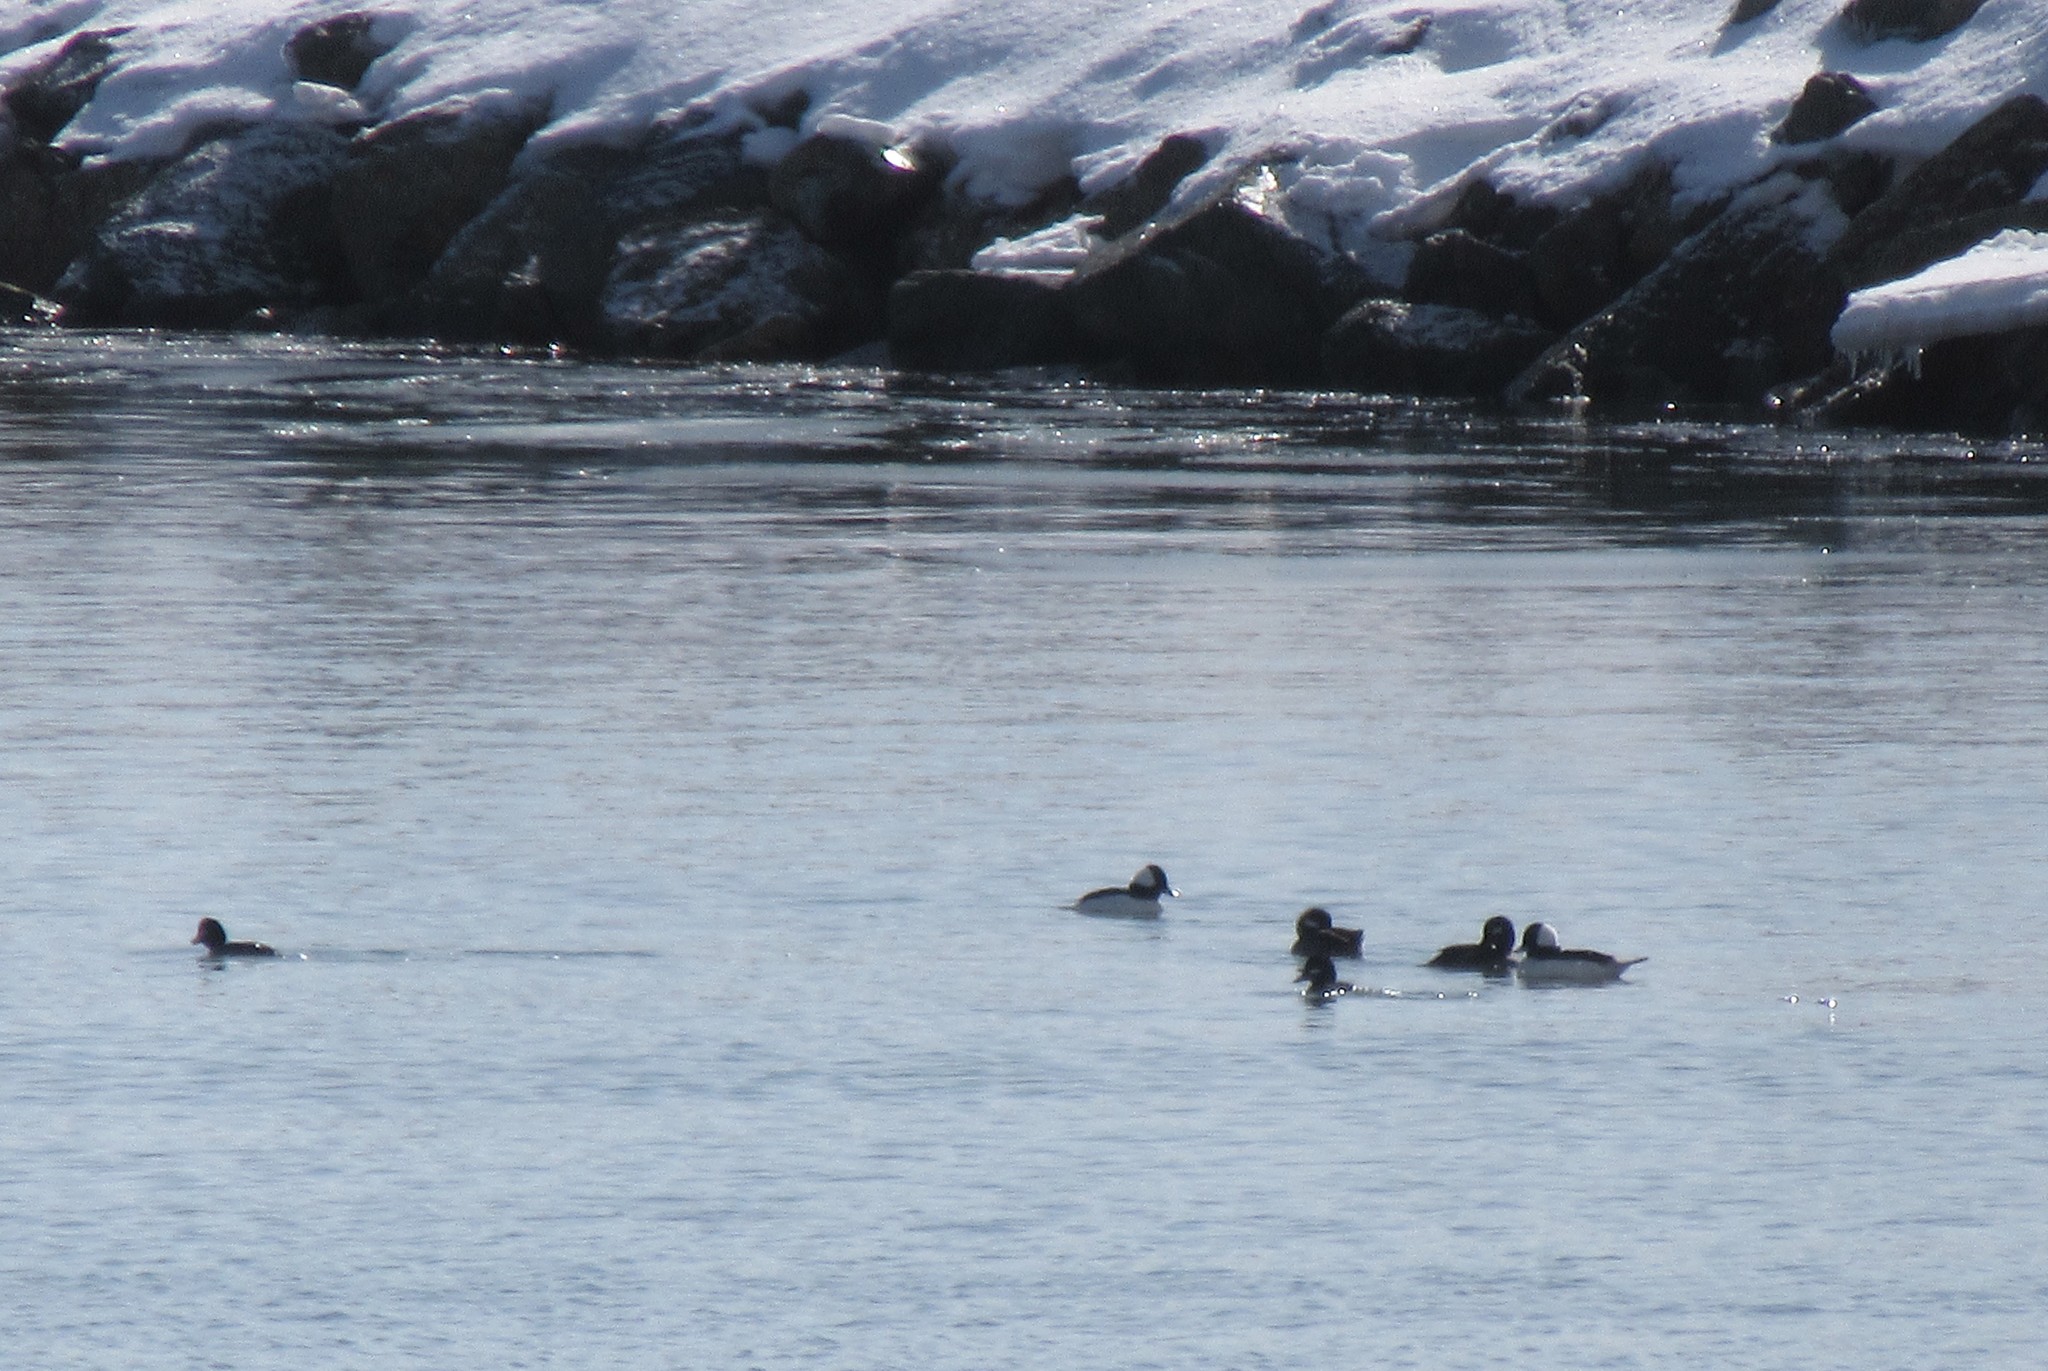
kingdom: Animalia
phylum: Chordata
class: Aves
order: Anseriformes
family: Anatidae
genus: Bucephala
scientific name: Bucephala albeola
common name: Bufflehead
